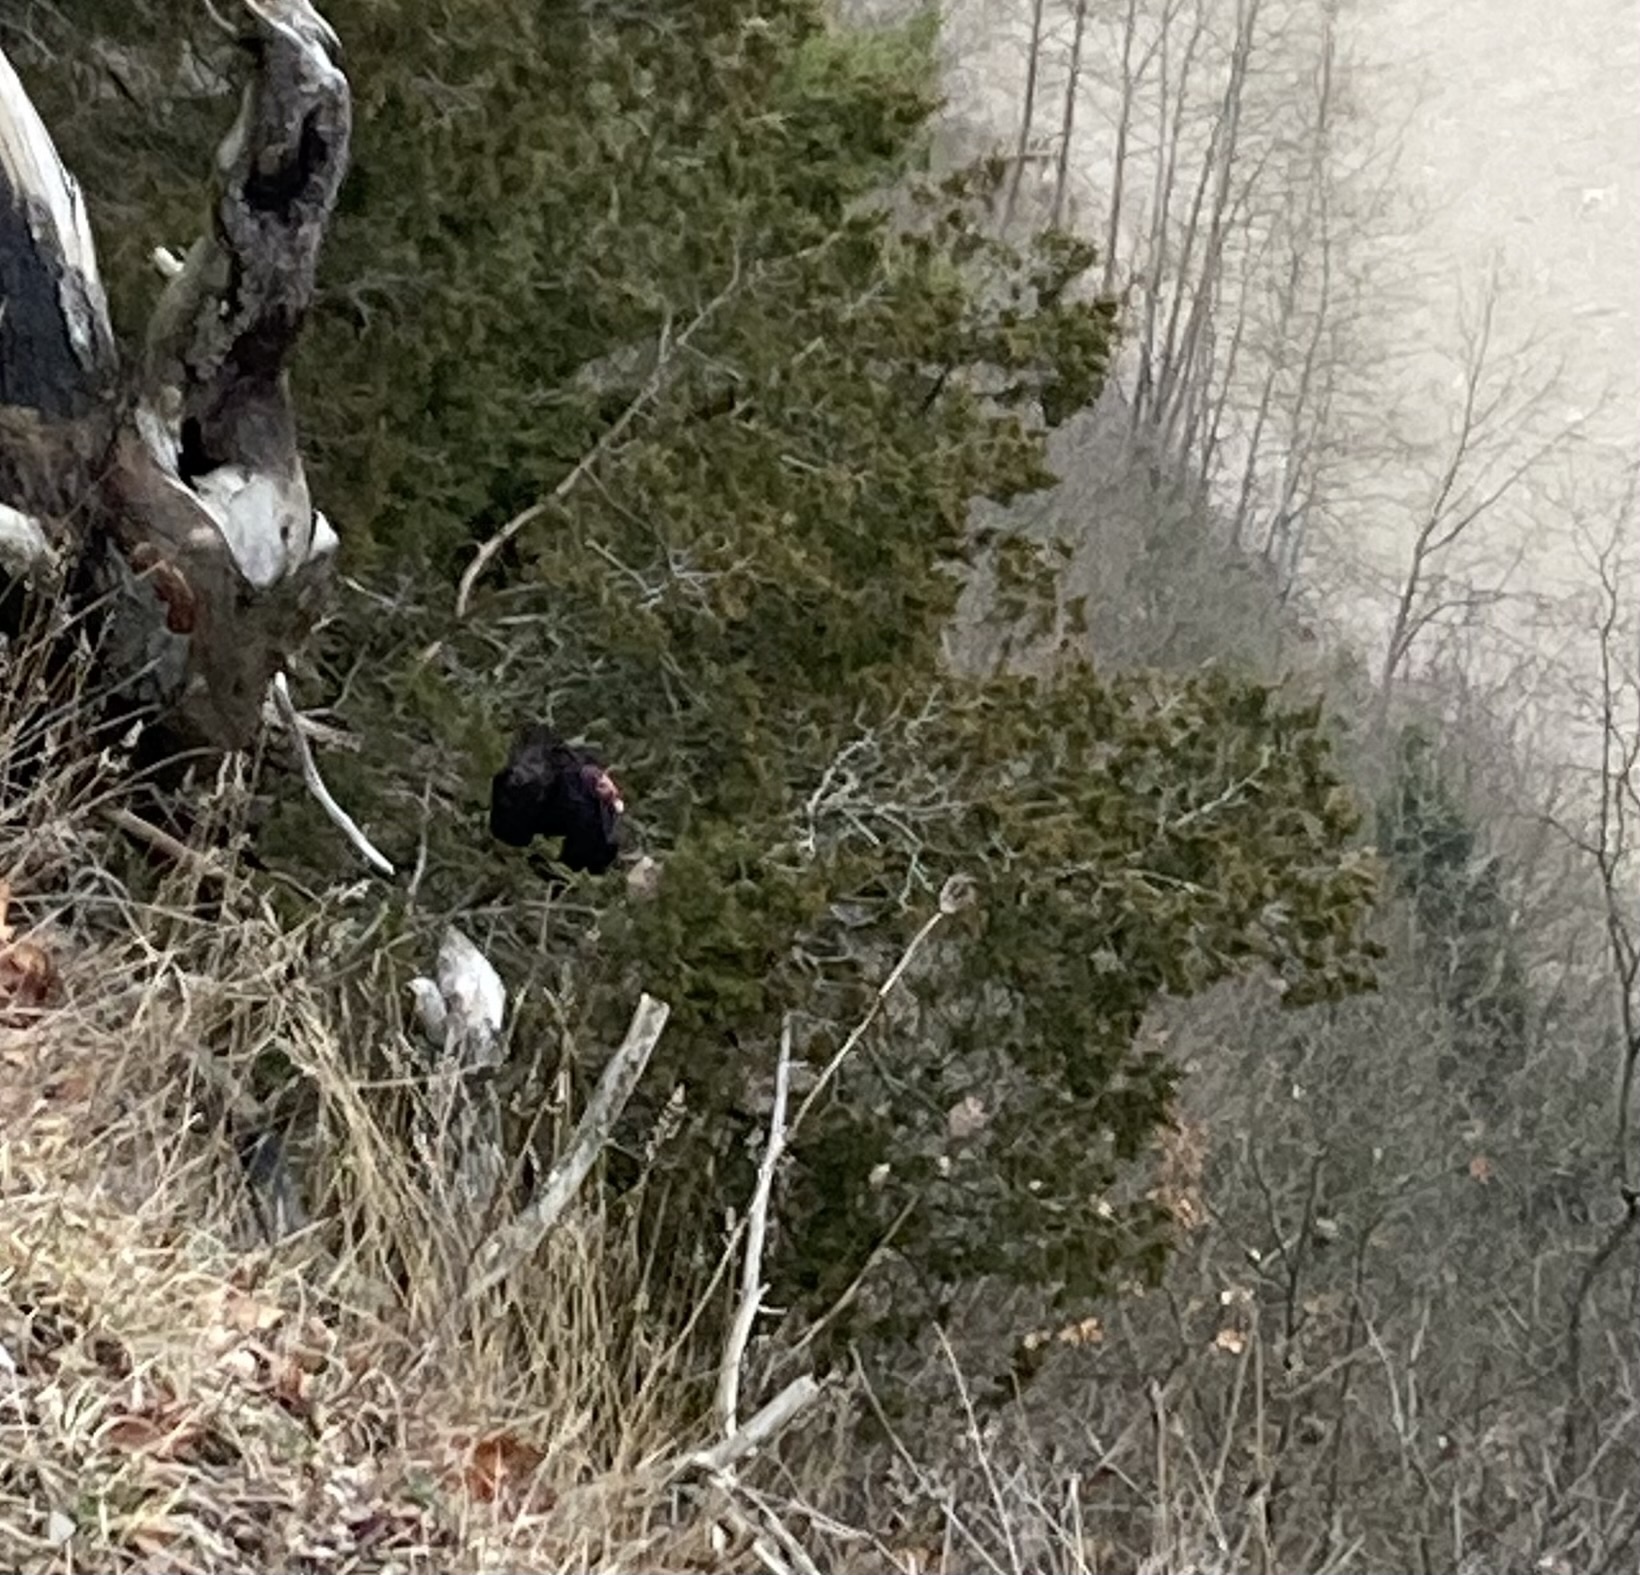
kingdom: Animalia
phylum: Chordata
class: Aves
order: Accipitriformes
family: Cathartidae
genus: Cathartes
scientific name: Cathartes aura
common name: Turkey vulture
